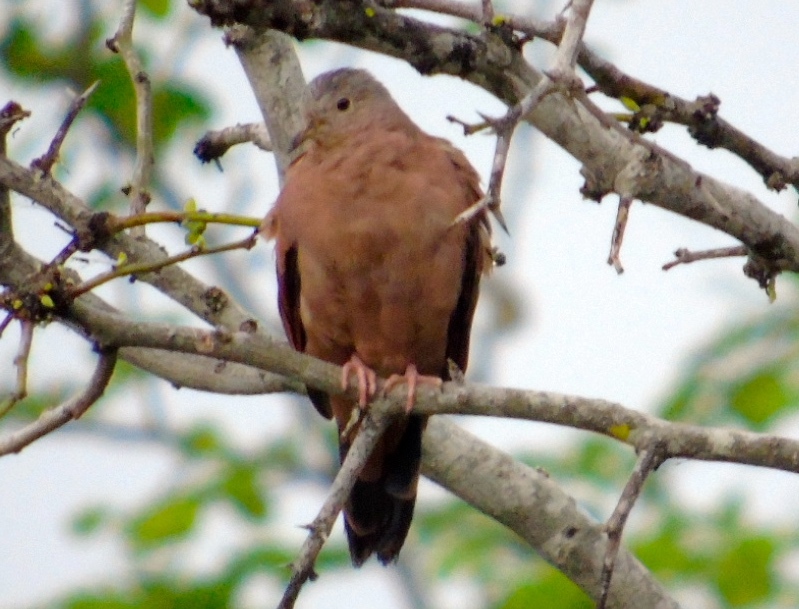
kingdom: Animalia
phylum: Chordata
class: Aves
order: Columbiformes
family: Columbidae
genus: Columbina
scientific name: Columbina talpacoti
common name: Ruddy ground dove
